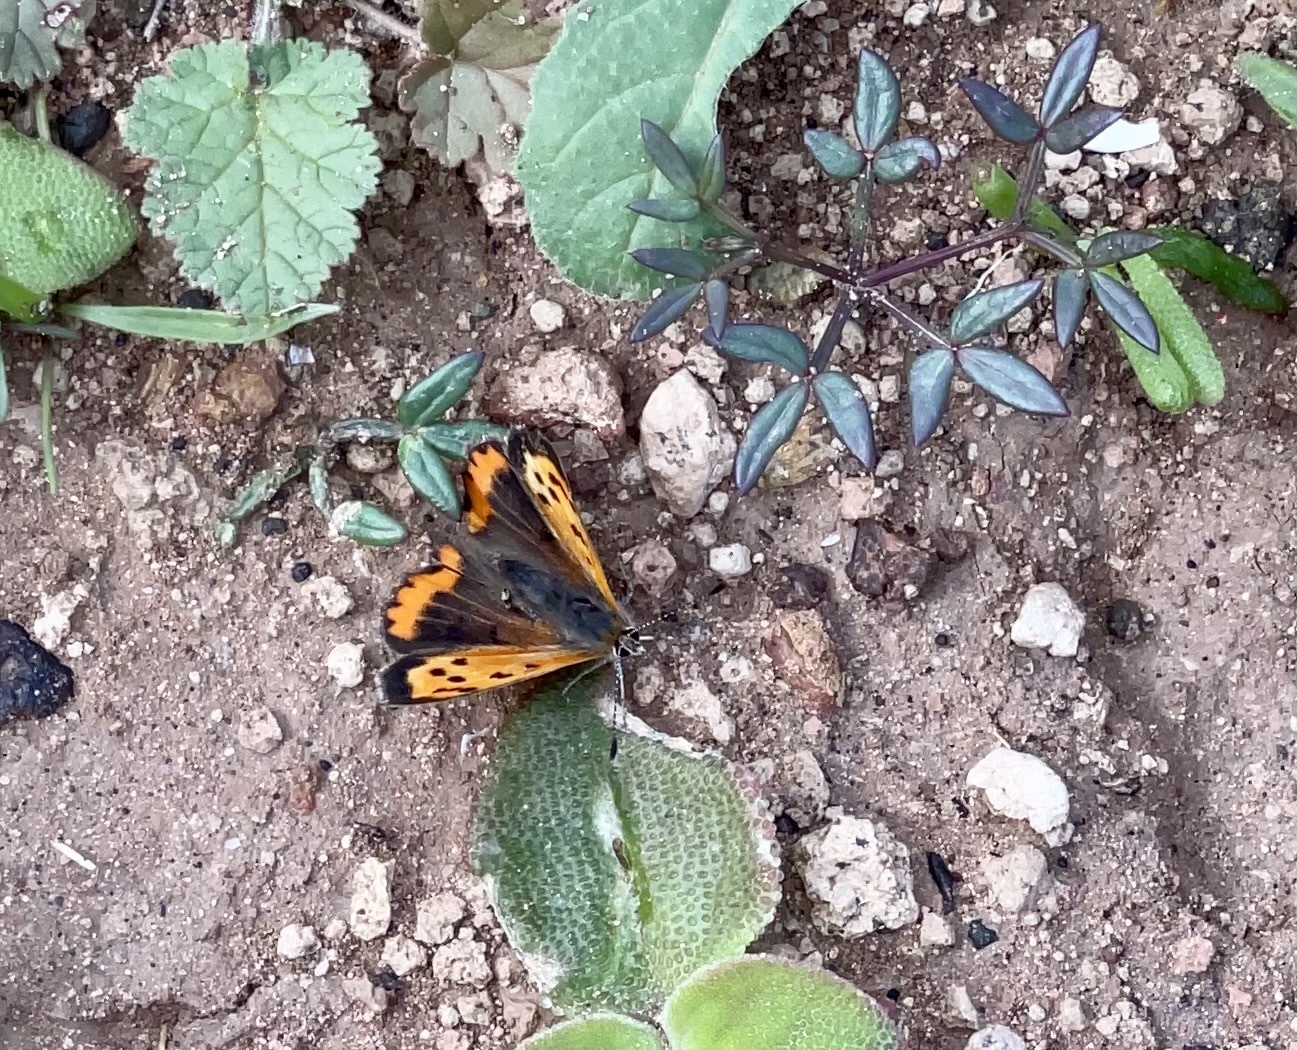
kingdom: Animalia
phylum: Arthropoda
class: Insecta
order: Lepidoptera
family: Lycaenidae
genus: Lycaena
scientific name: Lycaena phlaeas
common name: Small copper
